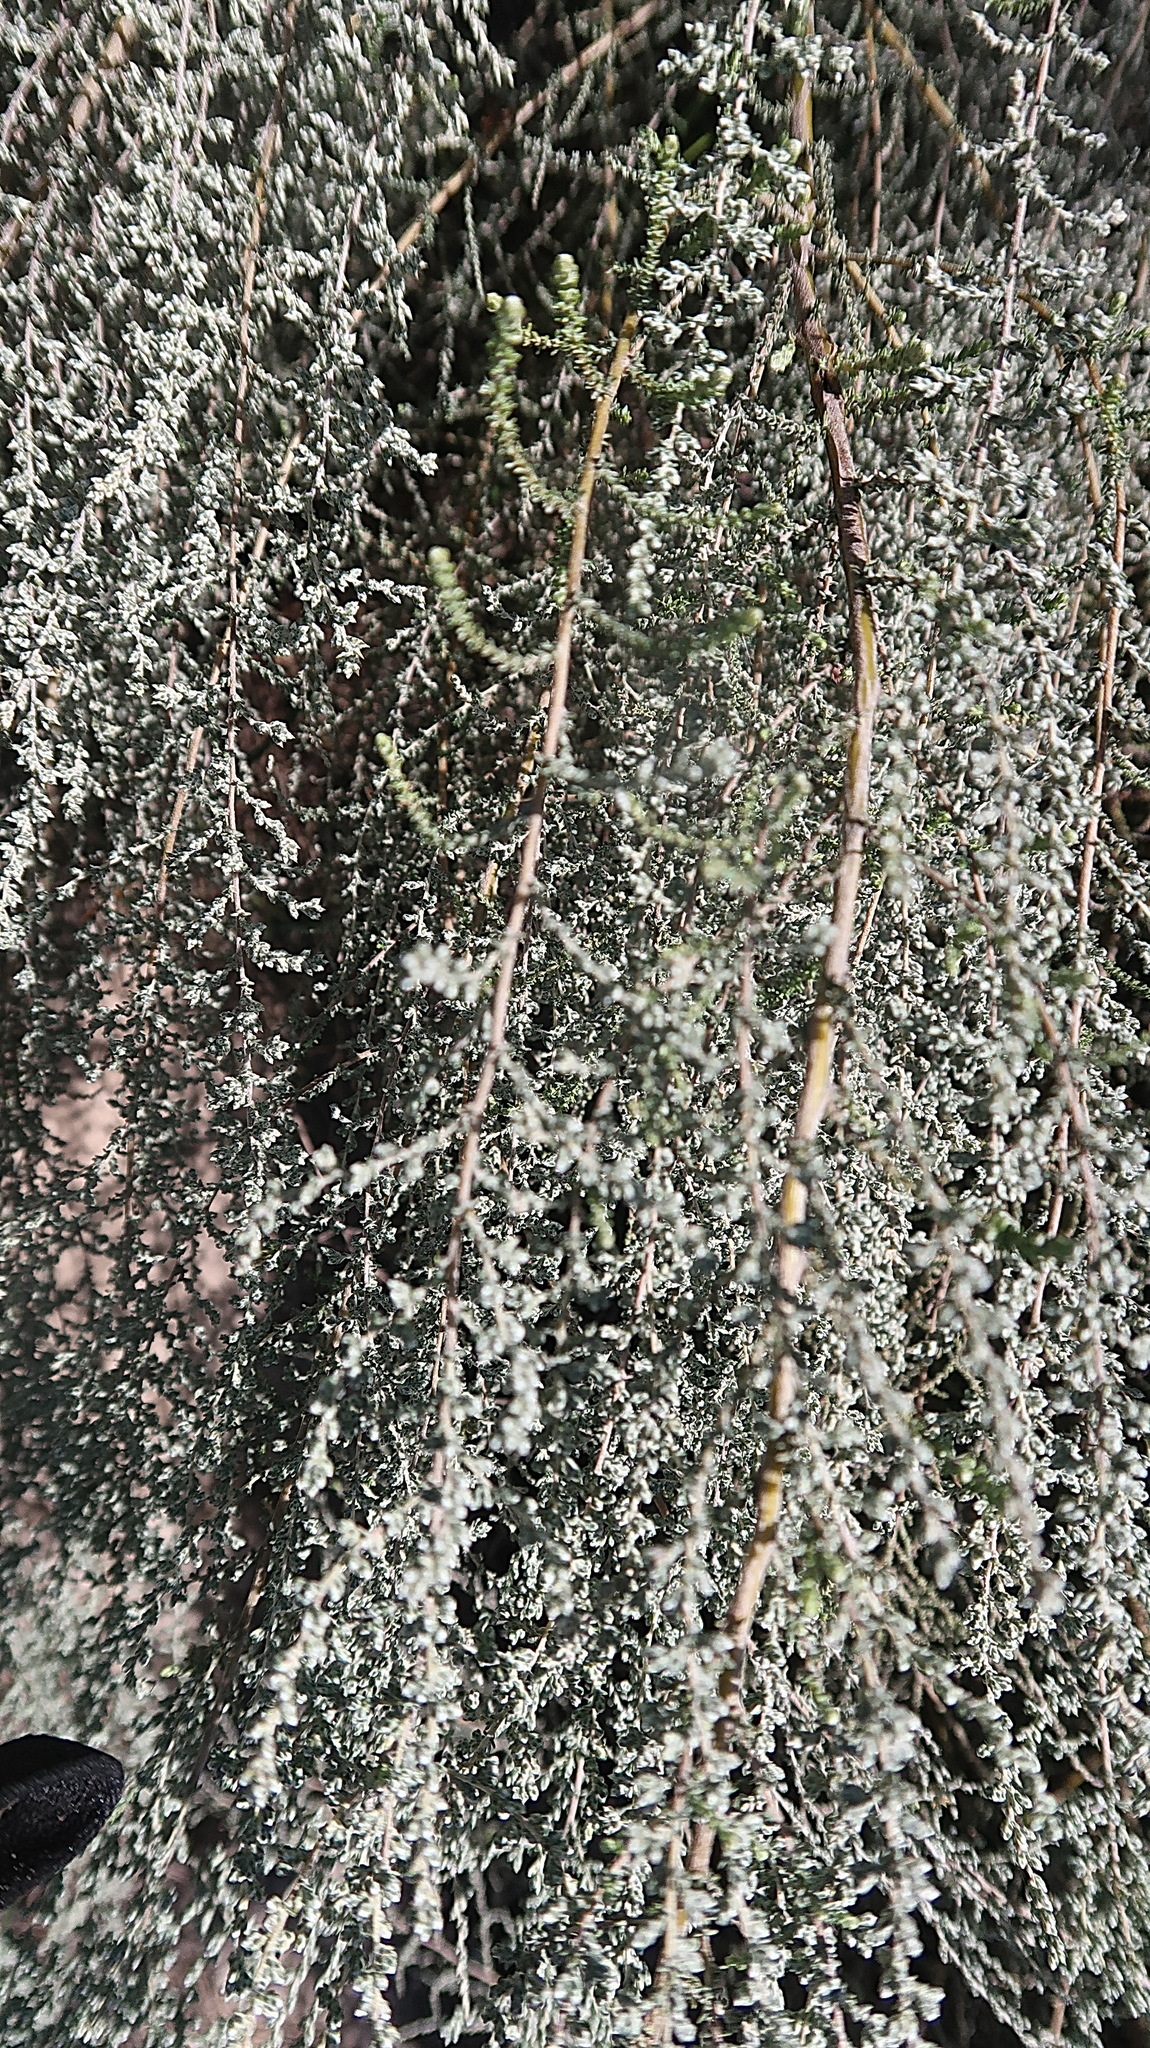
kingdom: Plantae
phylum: Tracheophyta
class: Magnoliopsida
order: Asterales
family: Asteraceae
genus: Seriphium
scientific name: Seriphium plumosum
